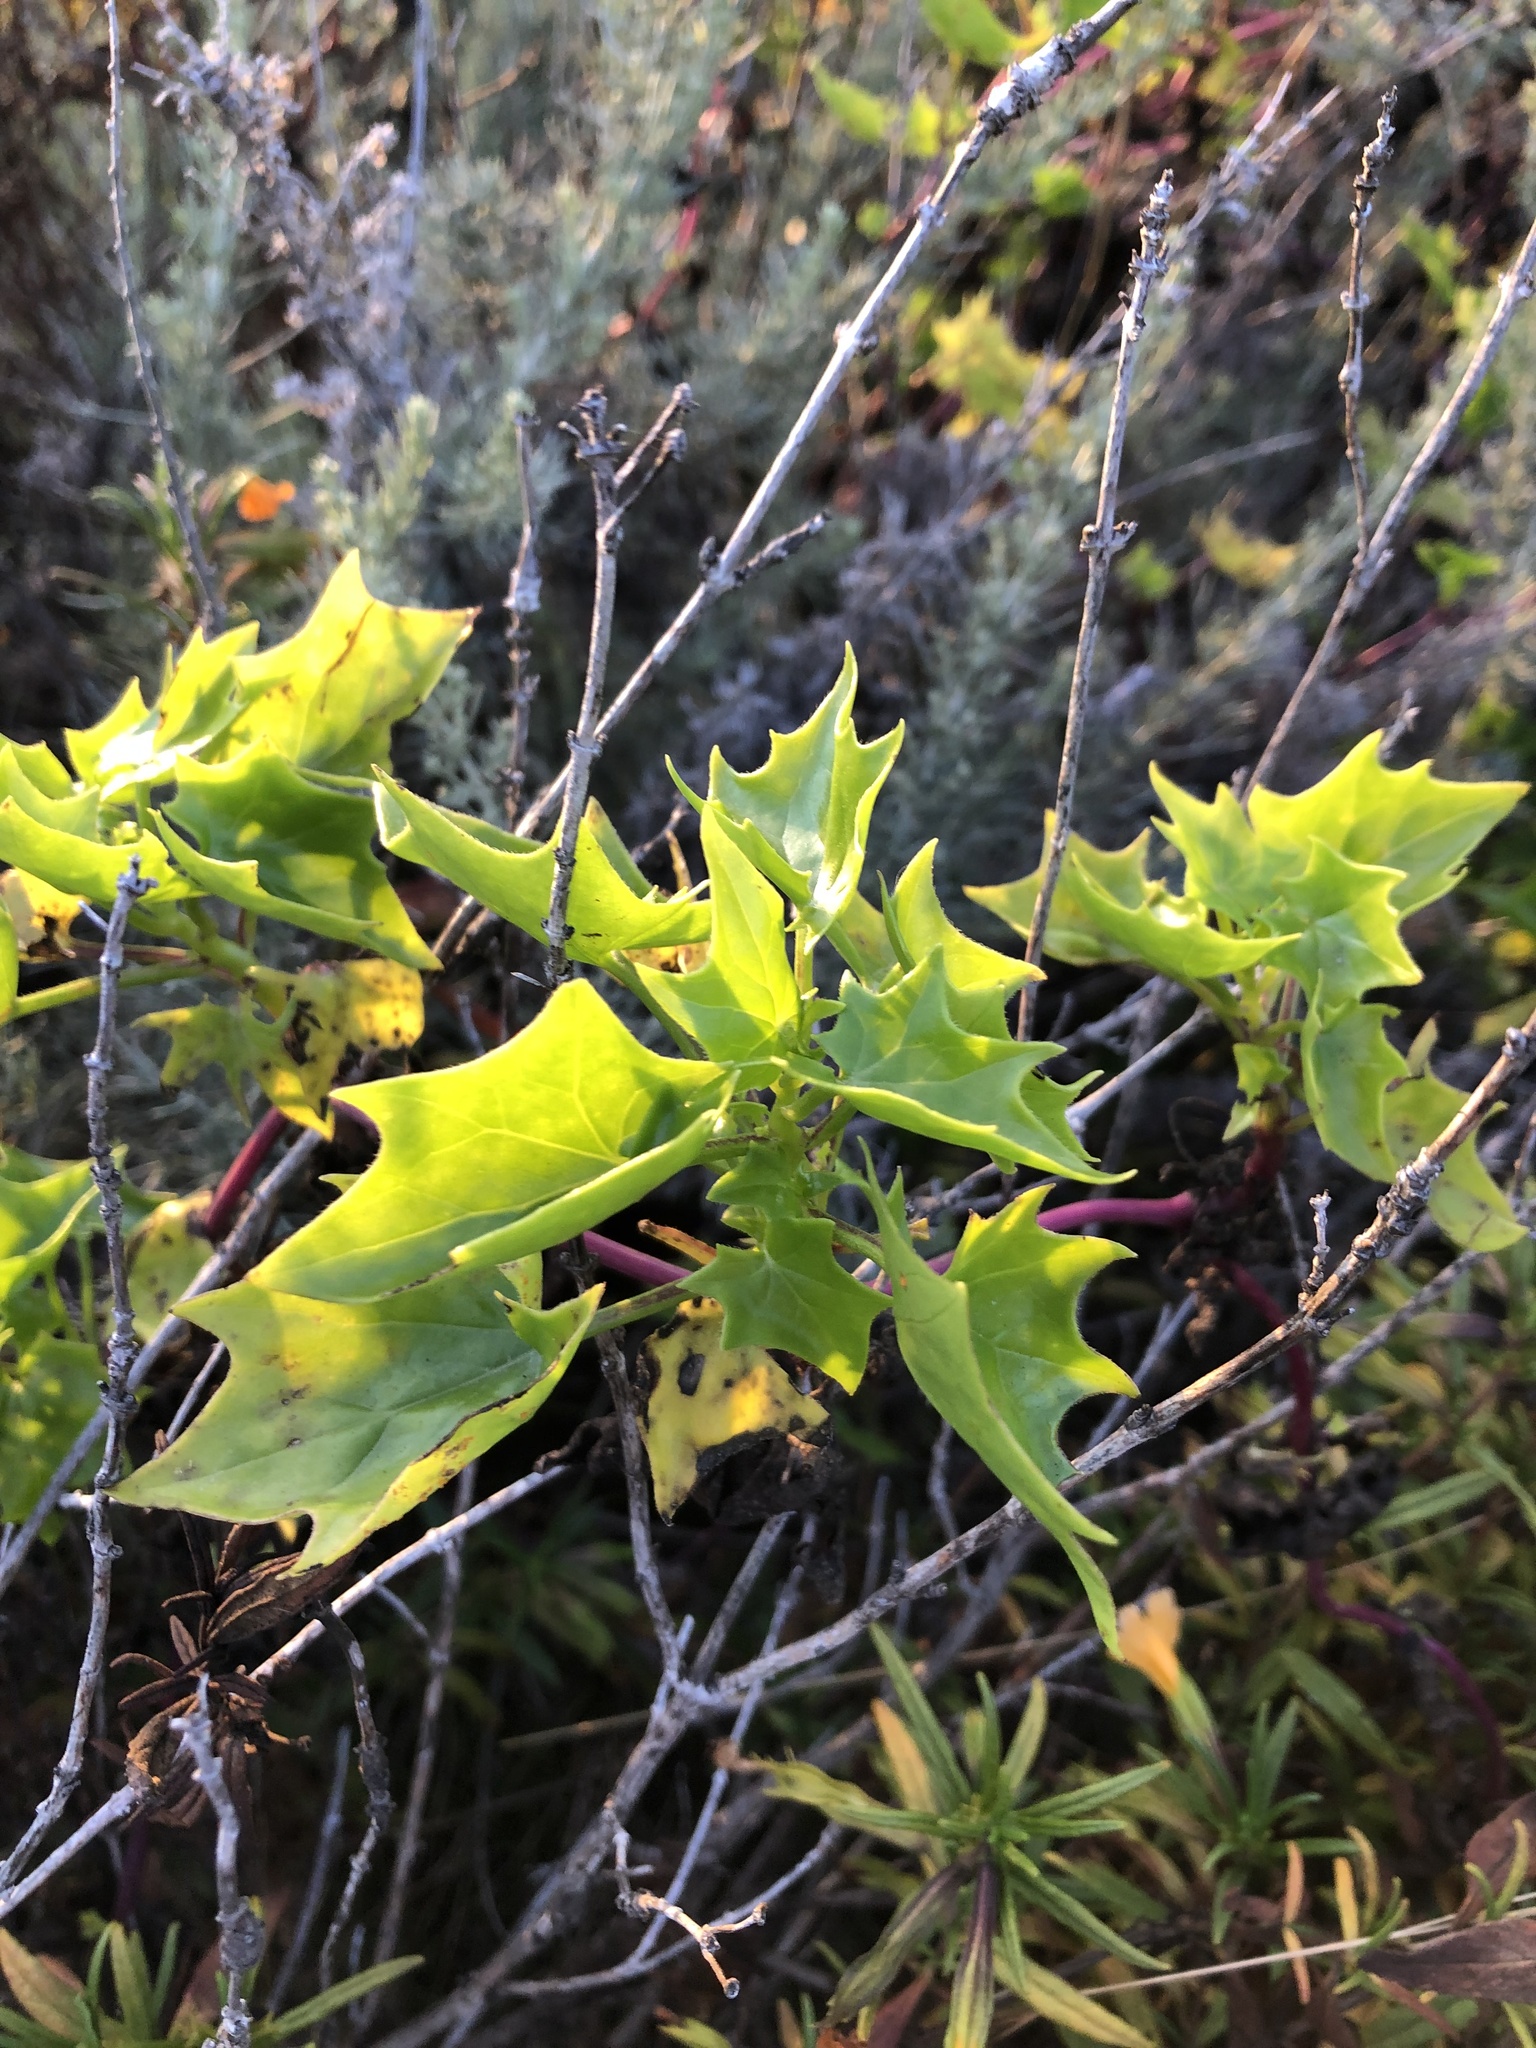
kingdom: Plantae
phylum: Tracheophyta
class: Magnoliopsida
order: Asterales
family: Asteraceae
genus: Delairea
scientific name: Delairea odorata
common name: Cape-ivy
